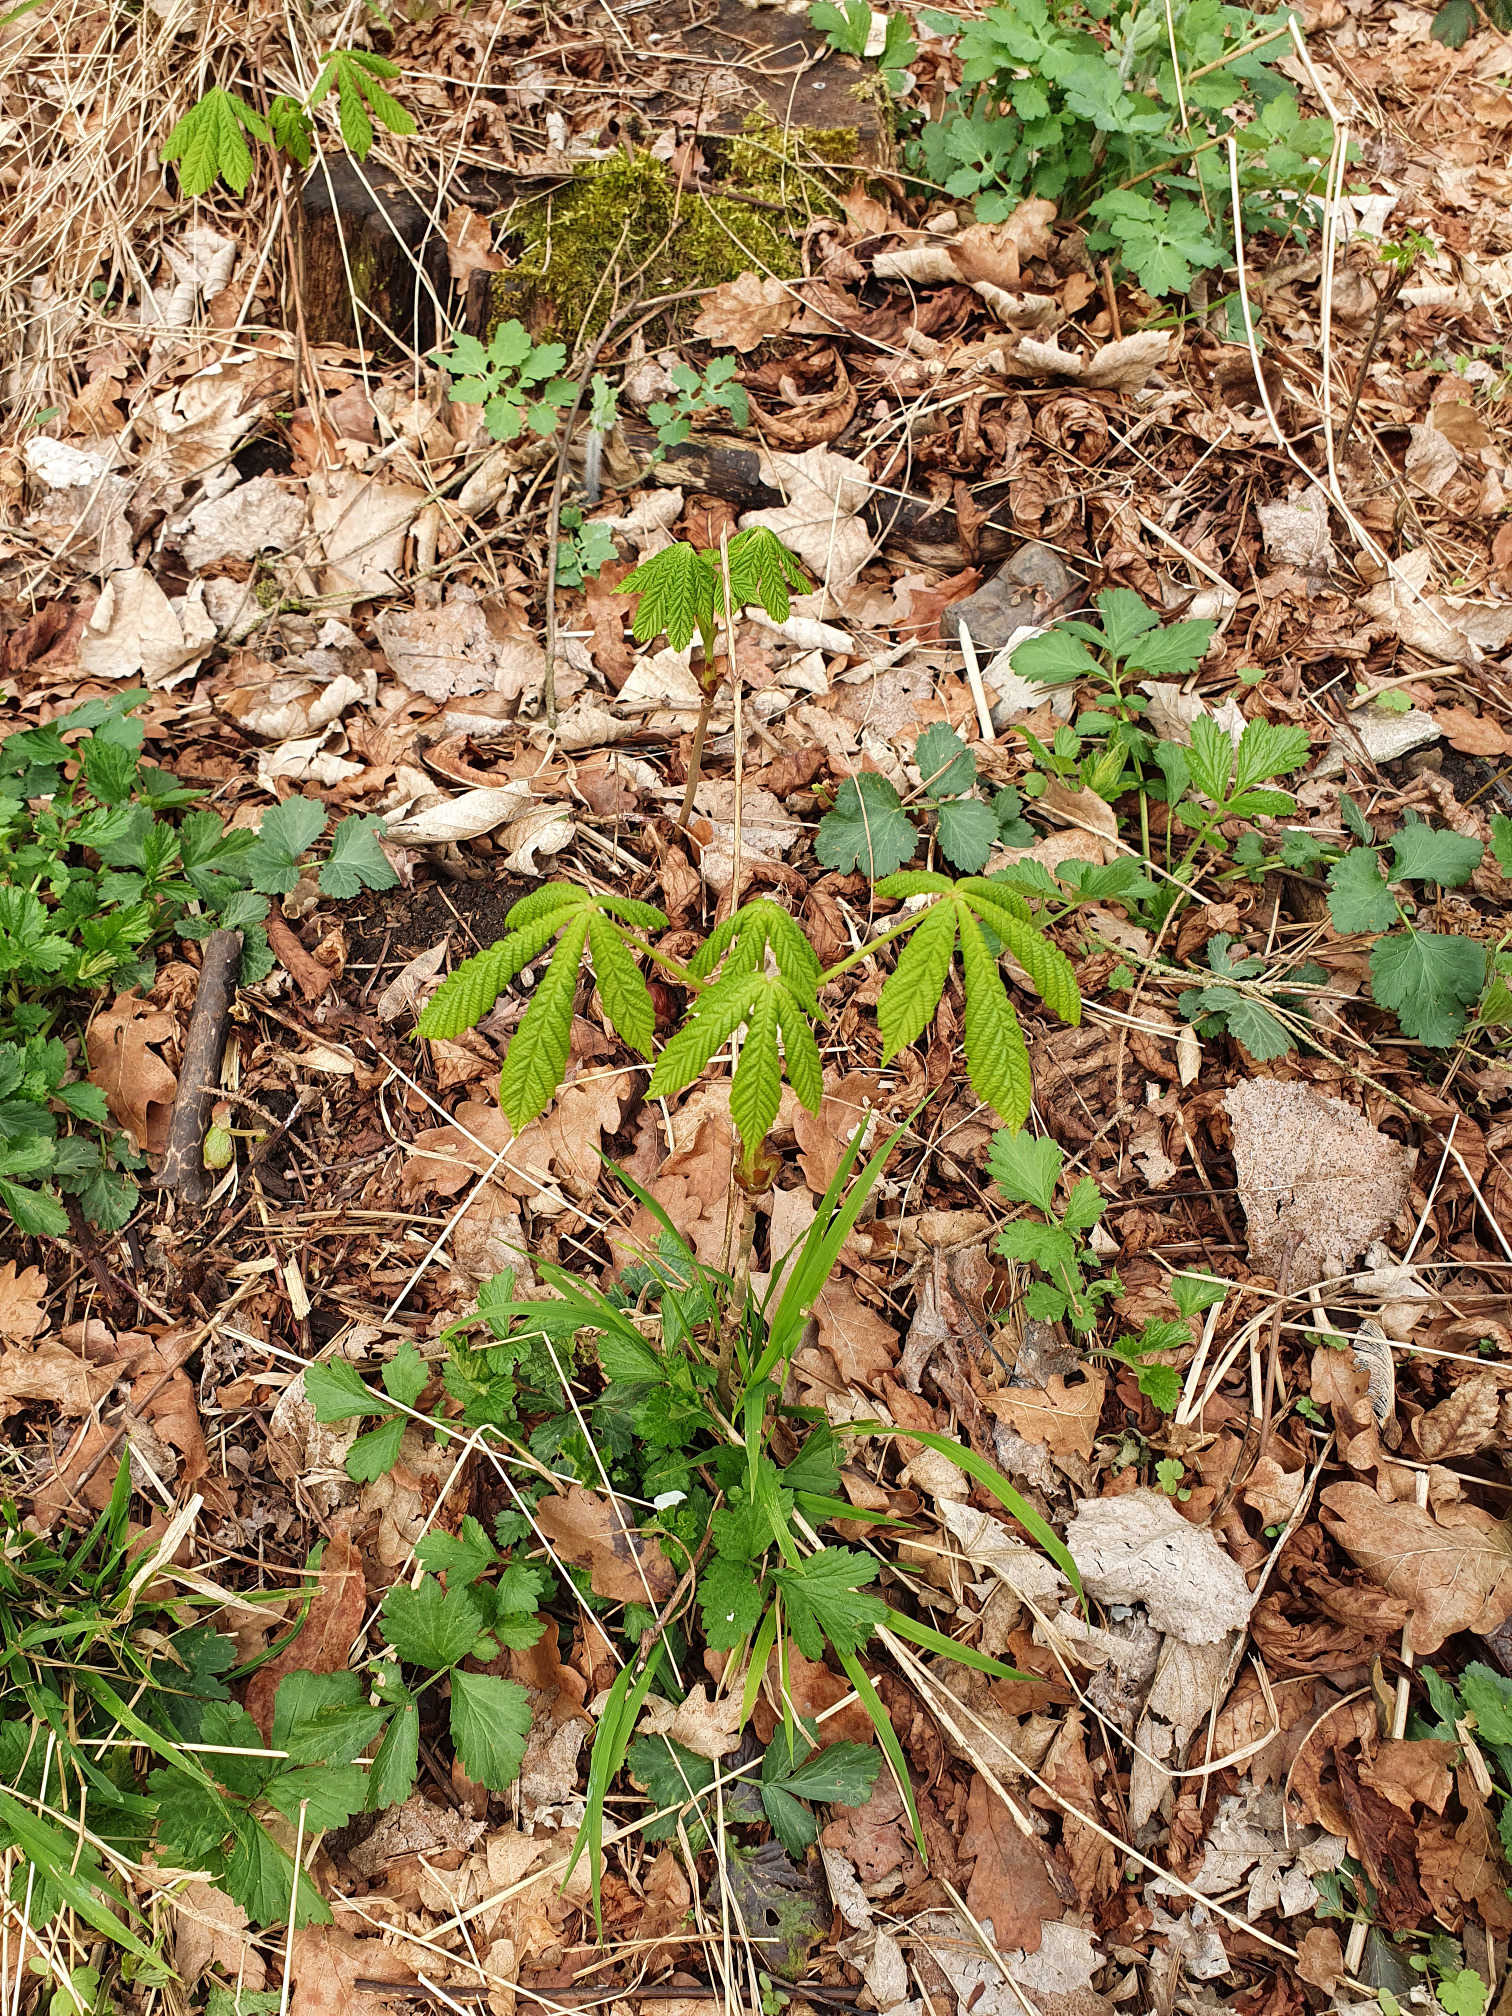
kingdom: Plantae
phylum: Tracheophyta
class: Magnoliopsida
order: Sapindales
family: Sapindaceae
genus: Aesculus
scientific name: Aesculus hippocastanum
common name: Horse-chestnut
